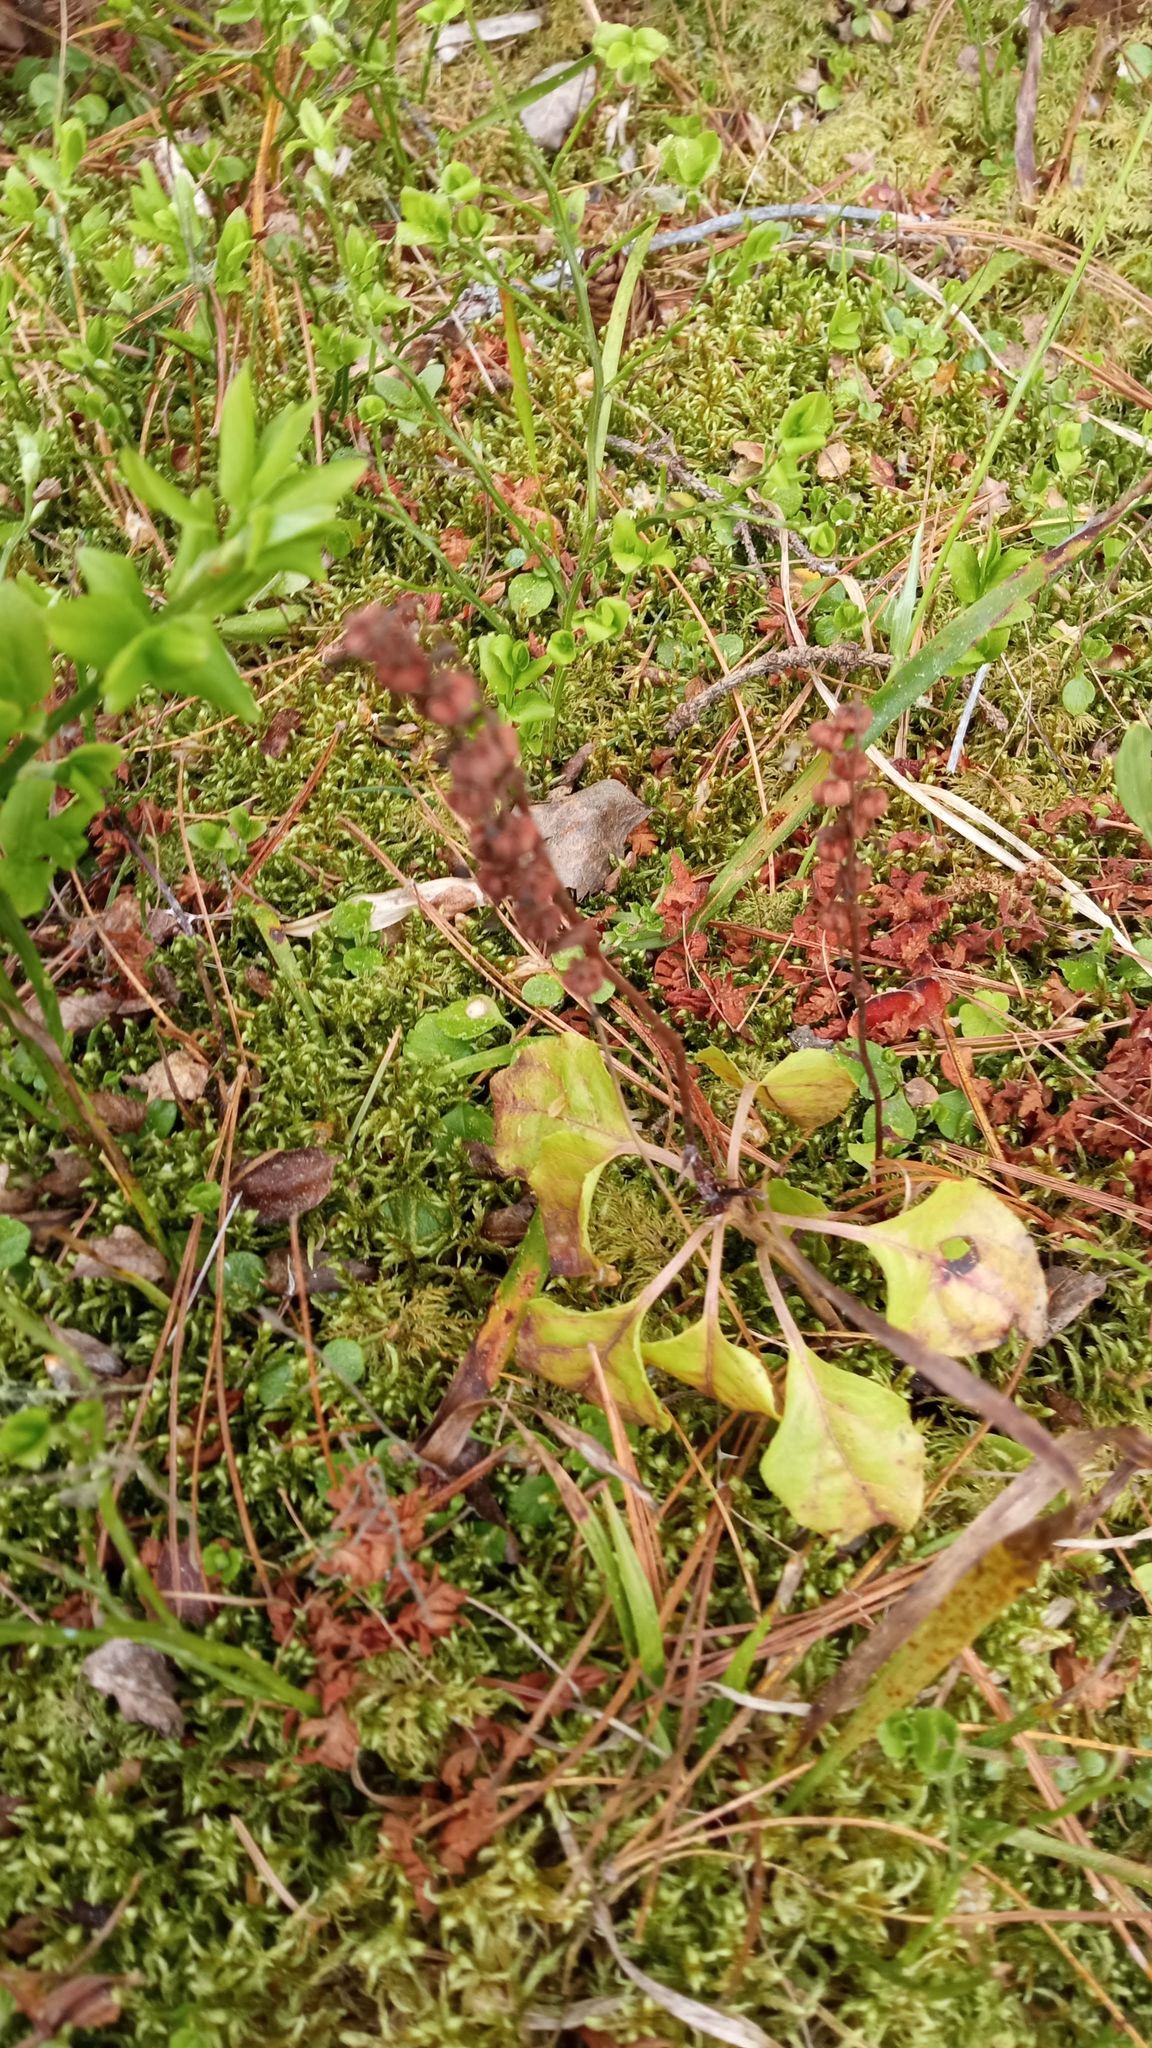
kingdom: Plantae
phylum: Tracheophyta
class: Magnoliopsida
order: Ericales
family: Ericaceae
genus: Orthilia
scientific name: Orthilia secunda
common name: One-sided orthilia
